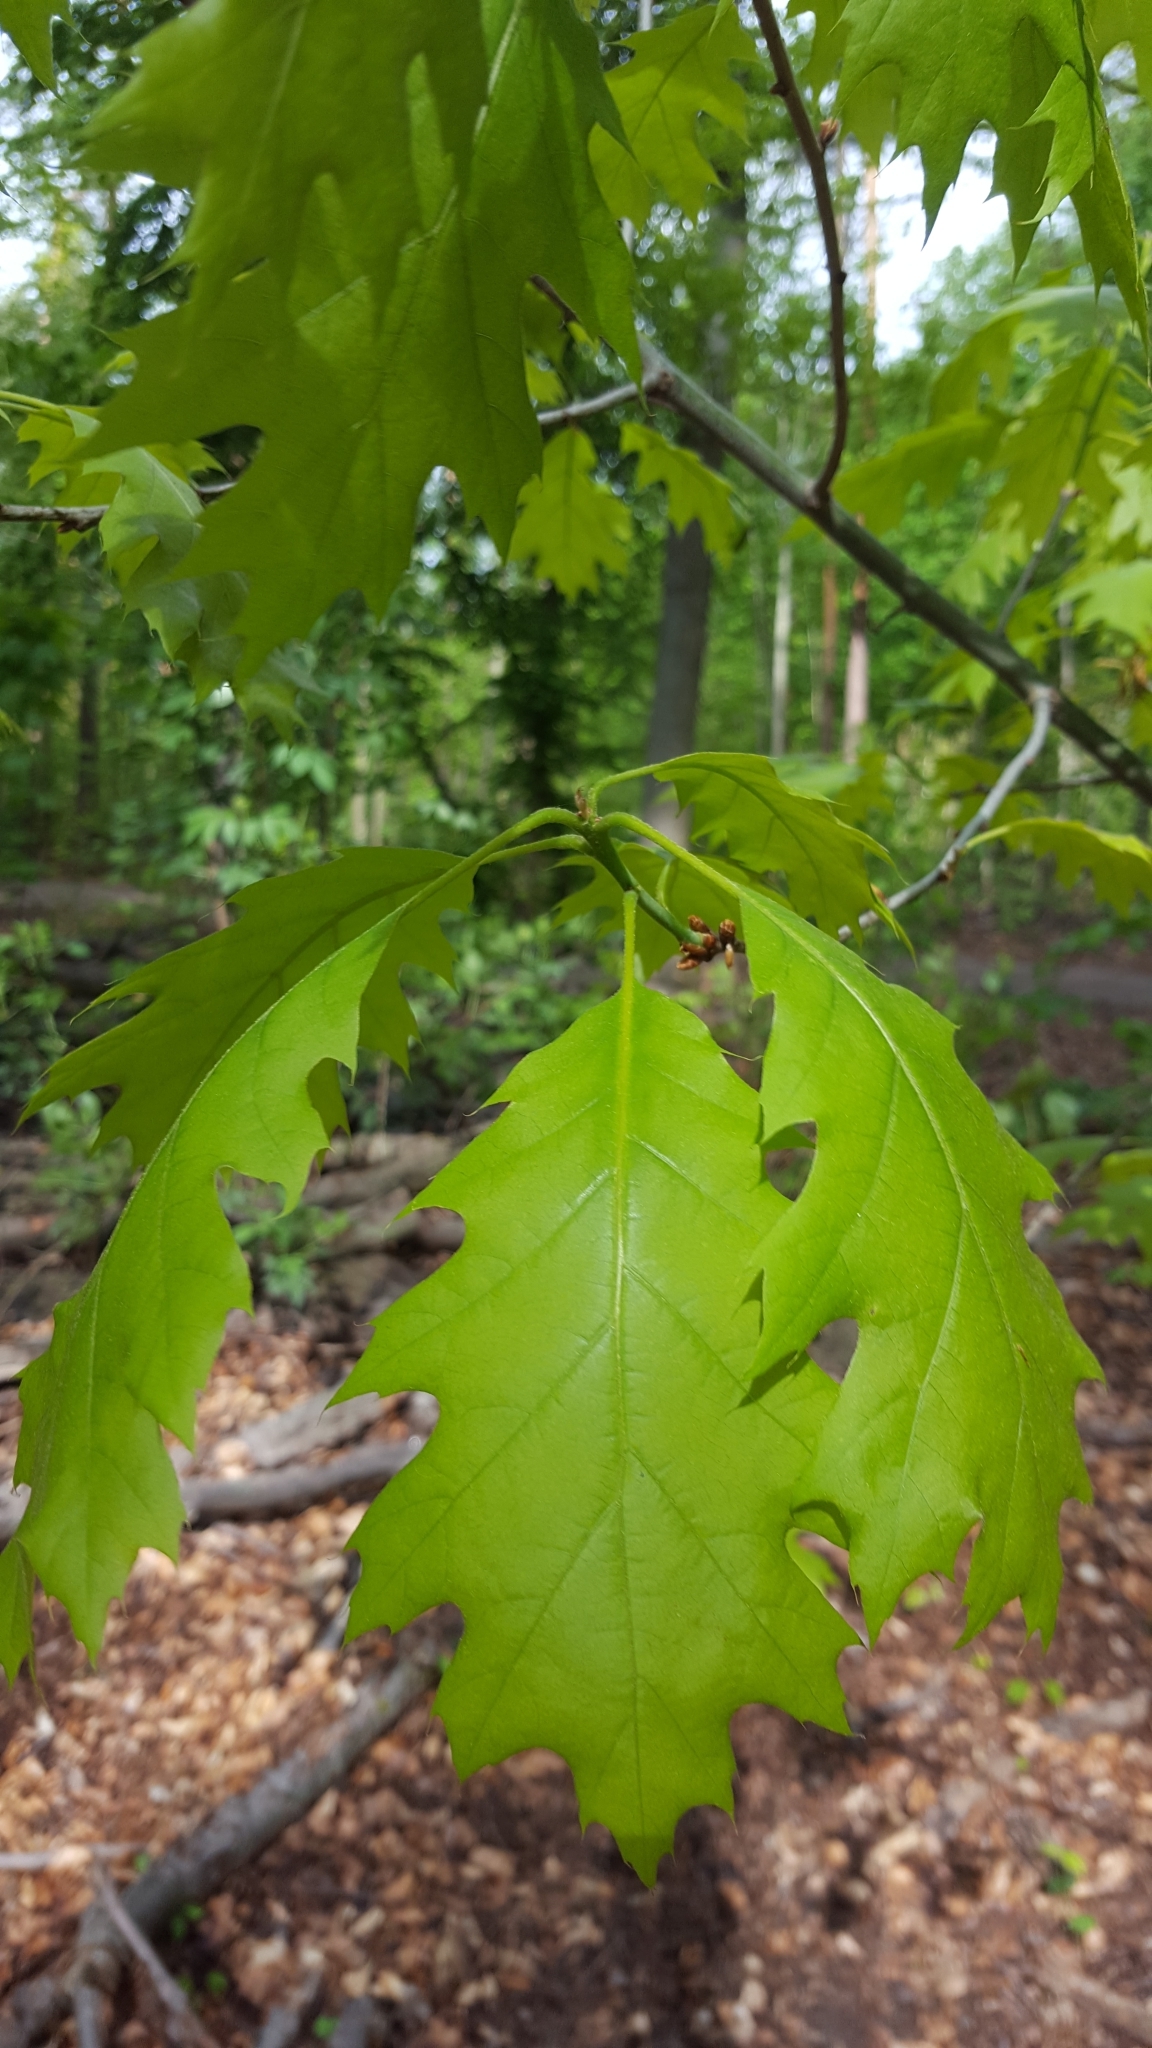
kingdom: Plantae
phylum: Tracheophyta
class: Magnoliopsida
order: Fagales
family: Fagaceae
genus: Quercus
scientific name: Quercus rubra
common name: Red oak
